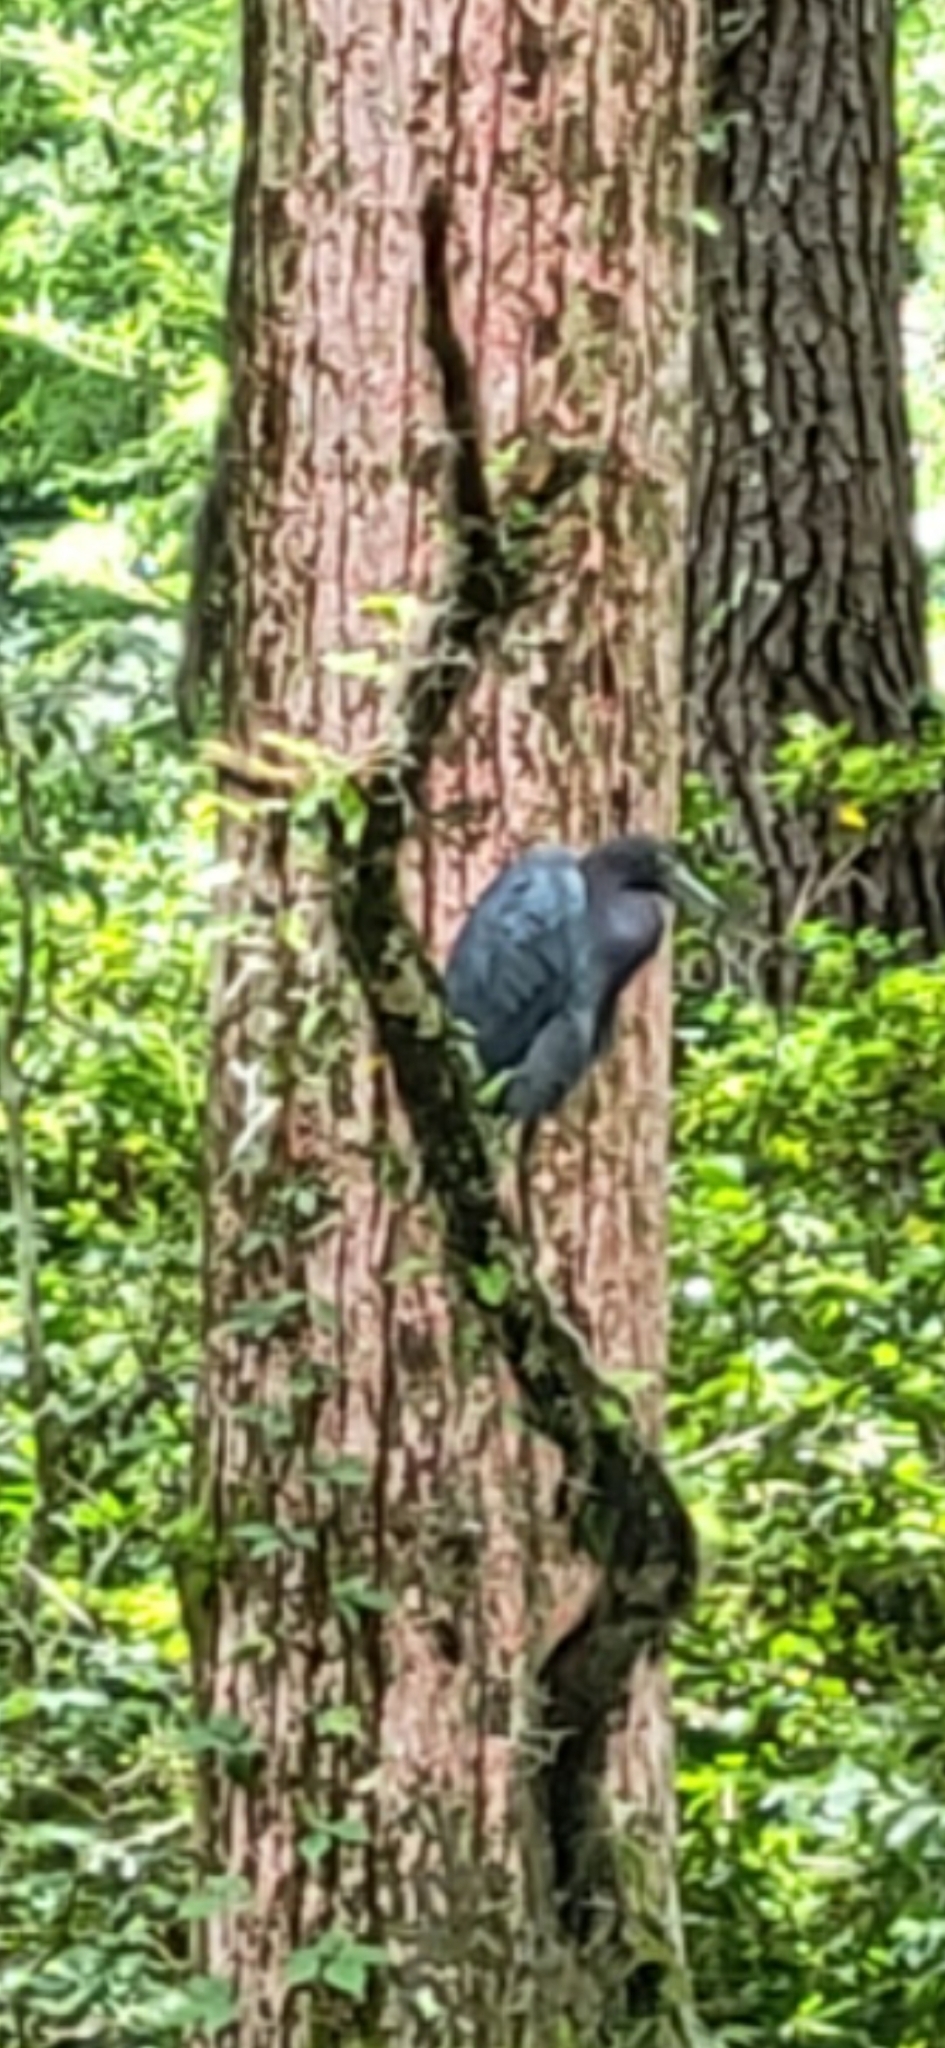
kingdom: Animalia
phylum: Chordata
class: Aves
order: Pelecaniformes
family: Ardeidae
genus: Egretta
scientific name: Egretta caerulea
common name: Little blue heron
